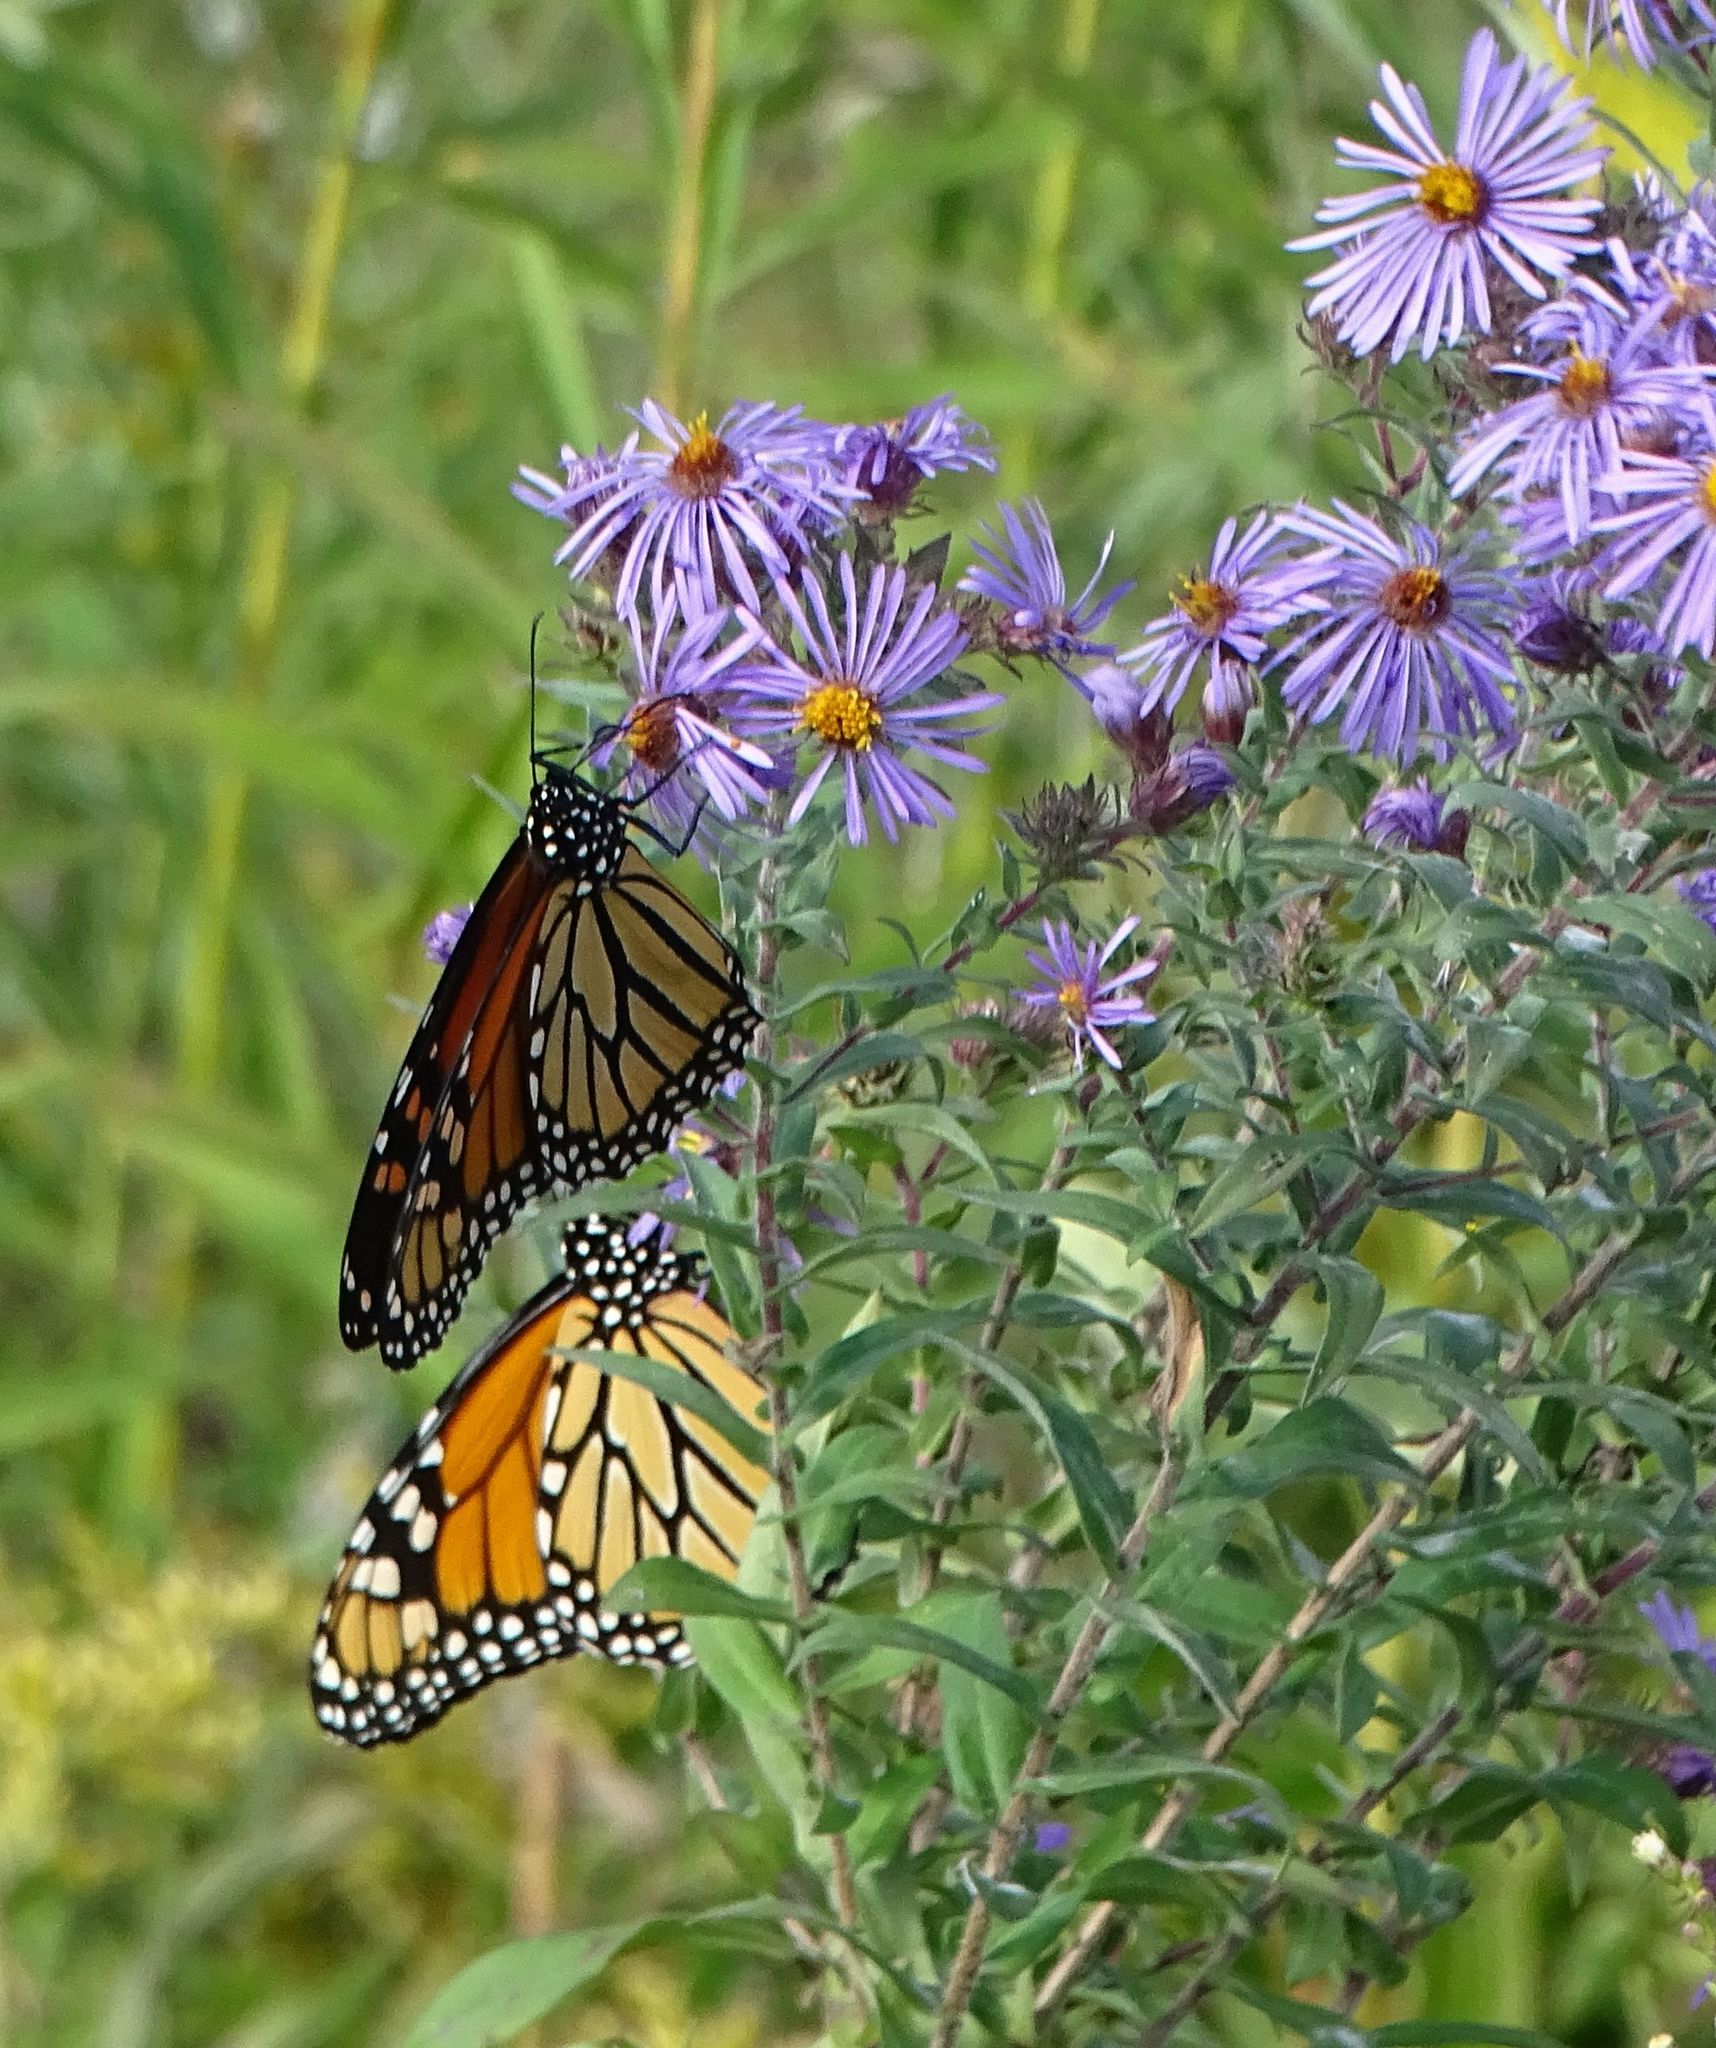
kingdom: Animalia
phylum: Arthropoda
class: Insecta
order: Lepidoptera
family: Nymphalidae
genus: Danaus
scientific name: Danaus plexippus
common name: Monarch
